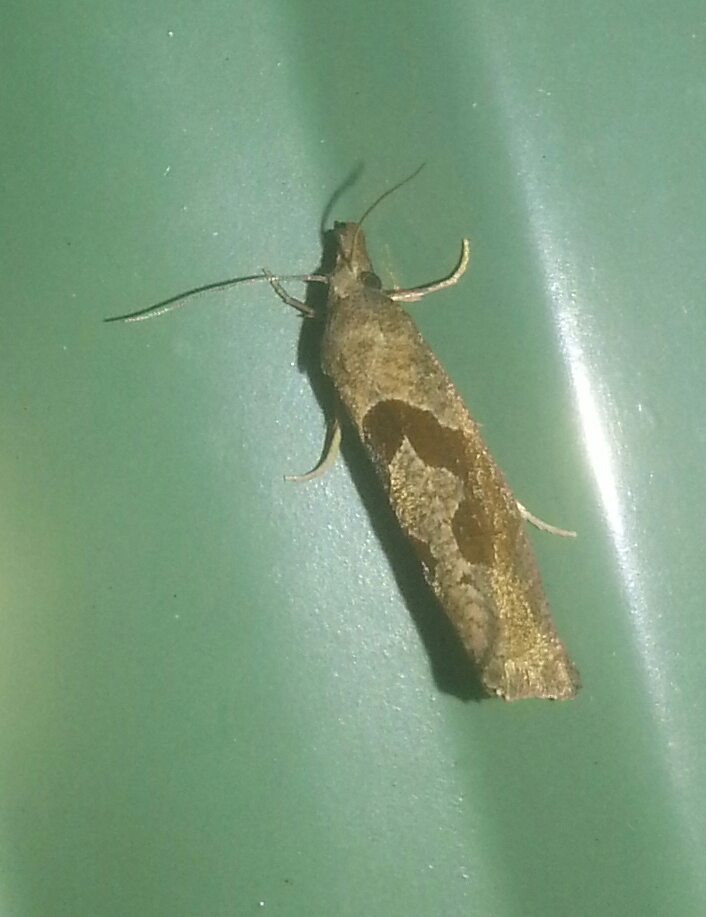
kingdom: Animalia
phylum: Arthropoda
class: Insecta
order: Lepidoptera
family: Tortricidae
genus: Pelochrista
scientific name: Pelochrista similiana
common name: Similar eucosma
